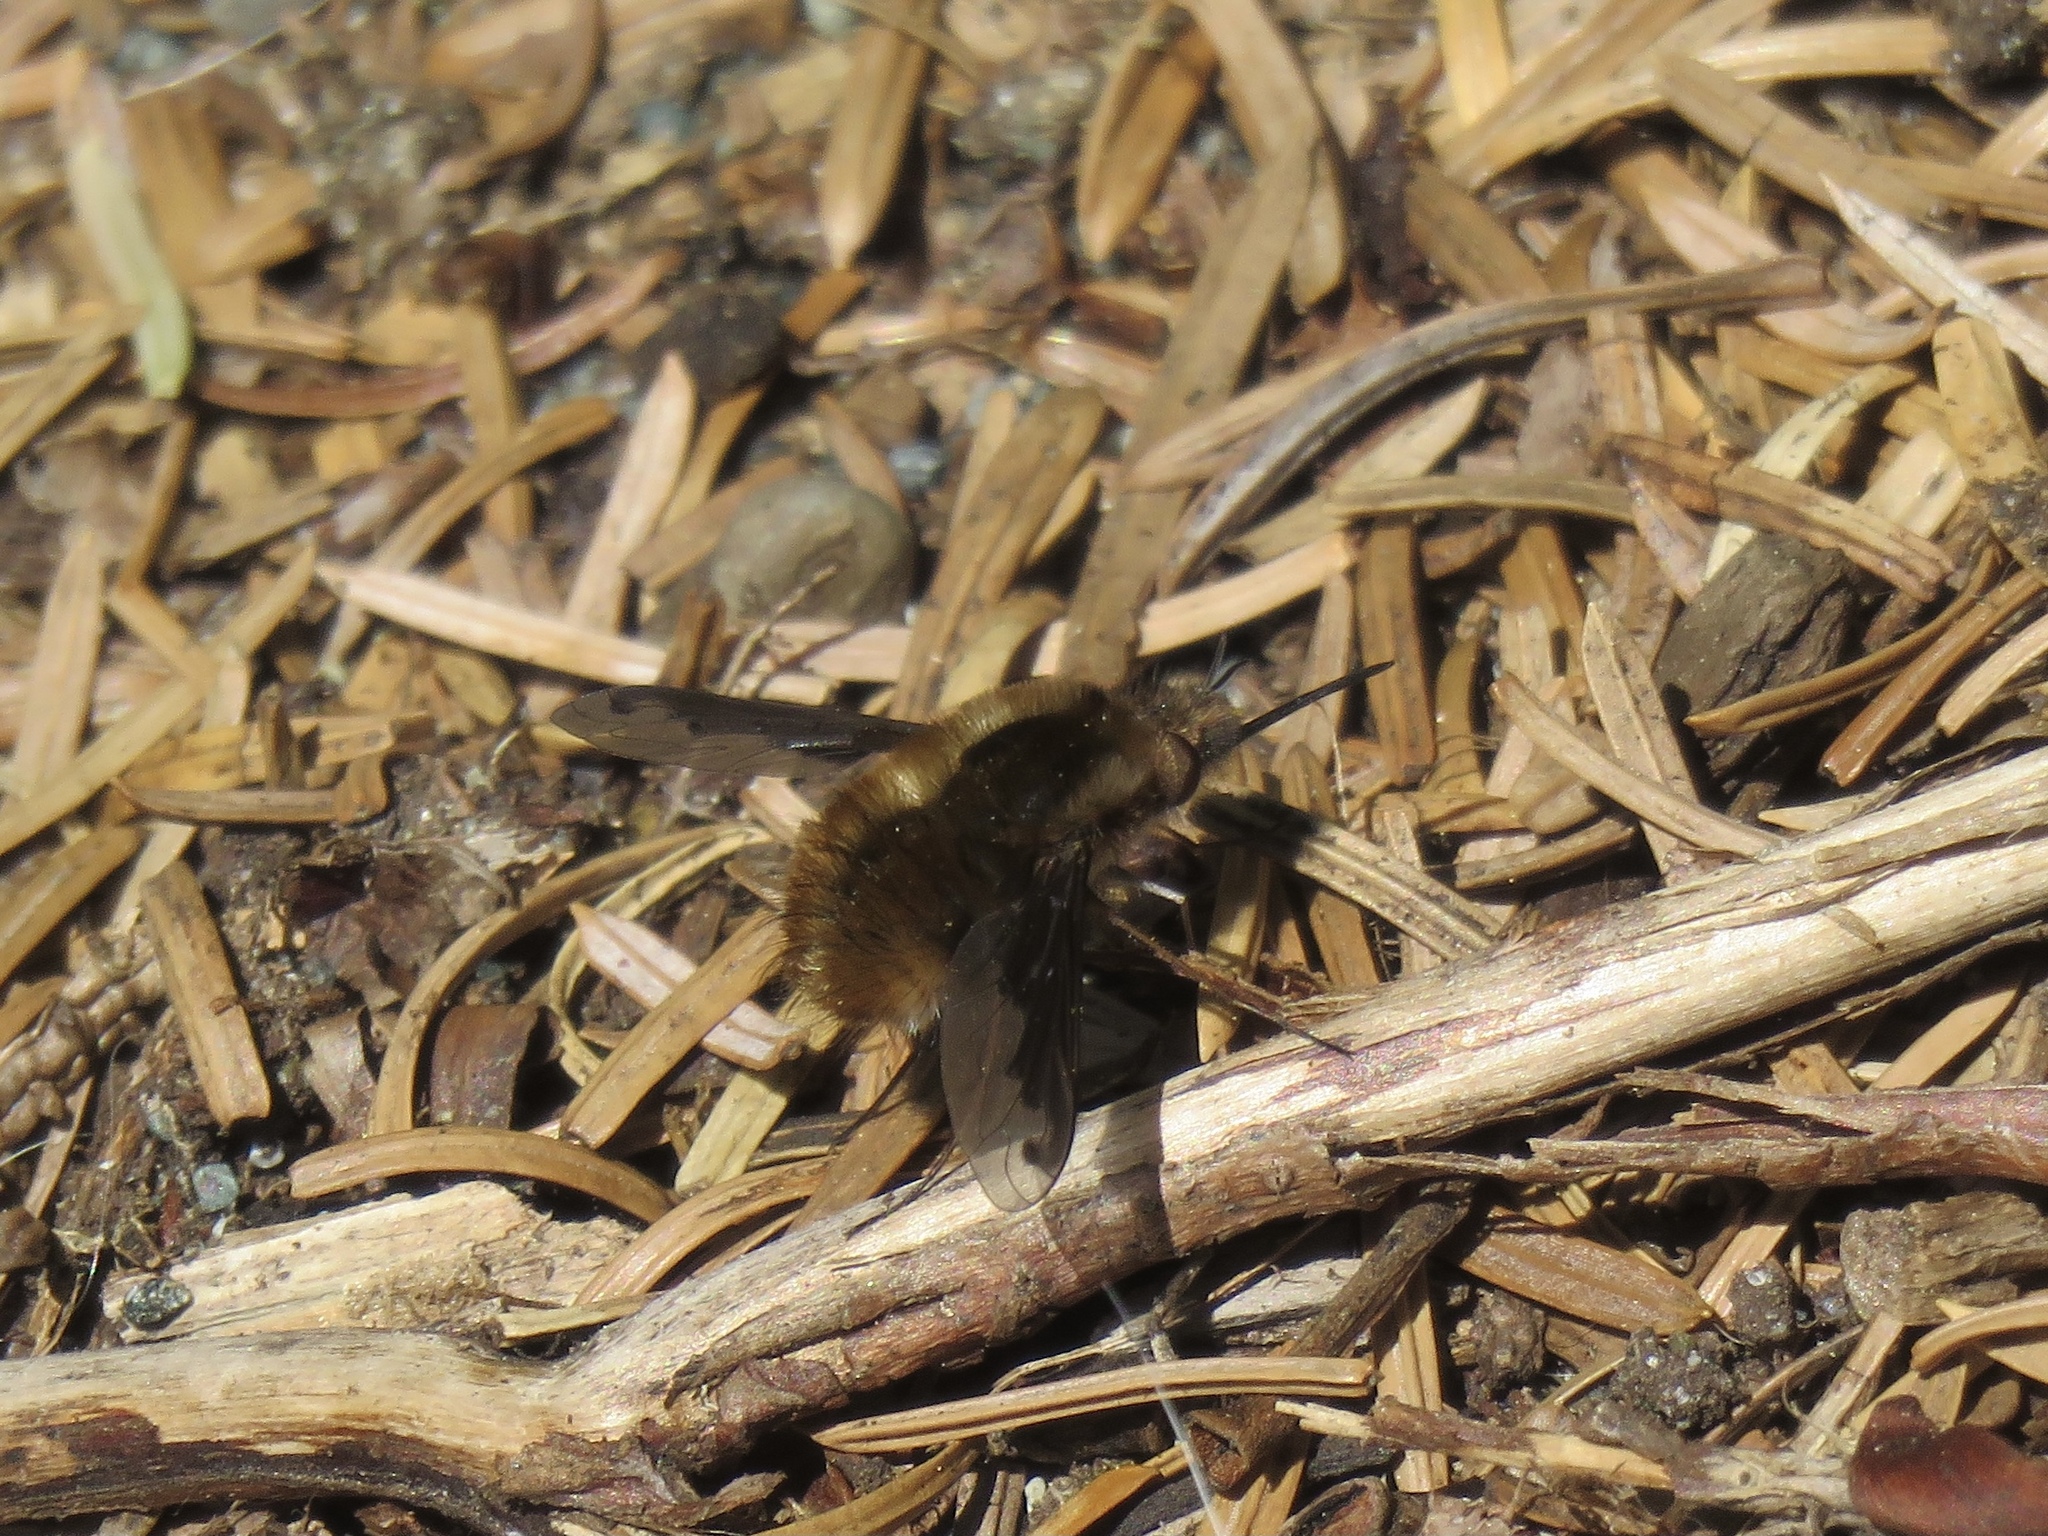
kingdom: Animalia
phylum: Arthropoda
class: Insecta
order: Diptera
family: Bombyliidae
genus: Bombylius
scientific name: Bombylius major
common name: Bee fly
